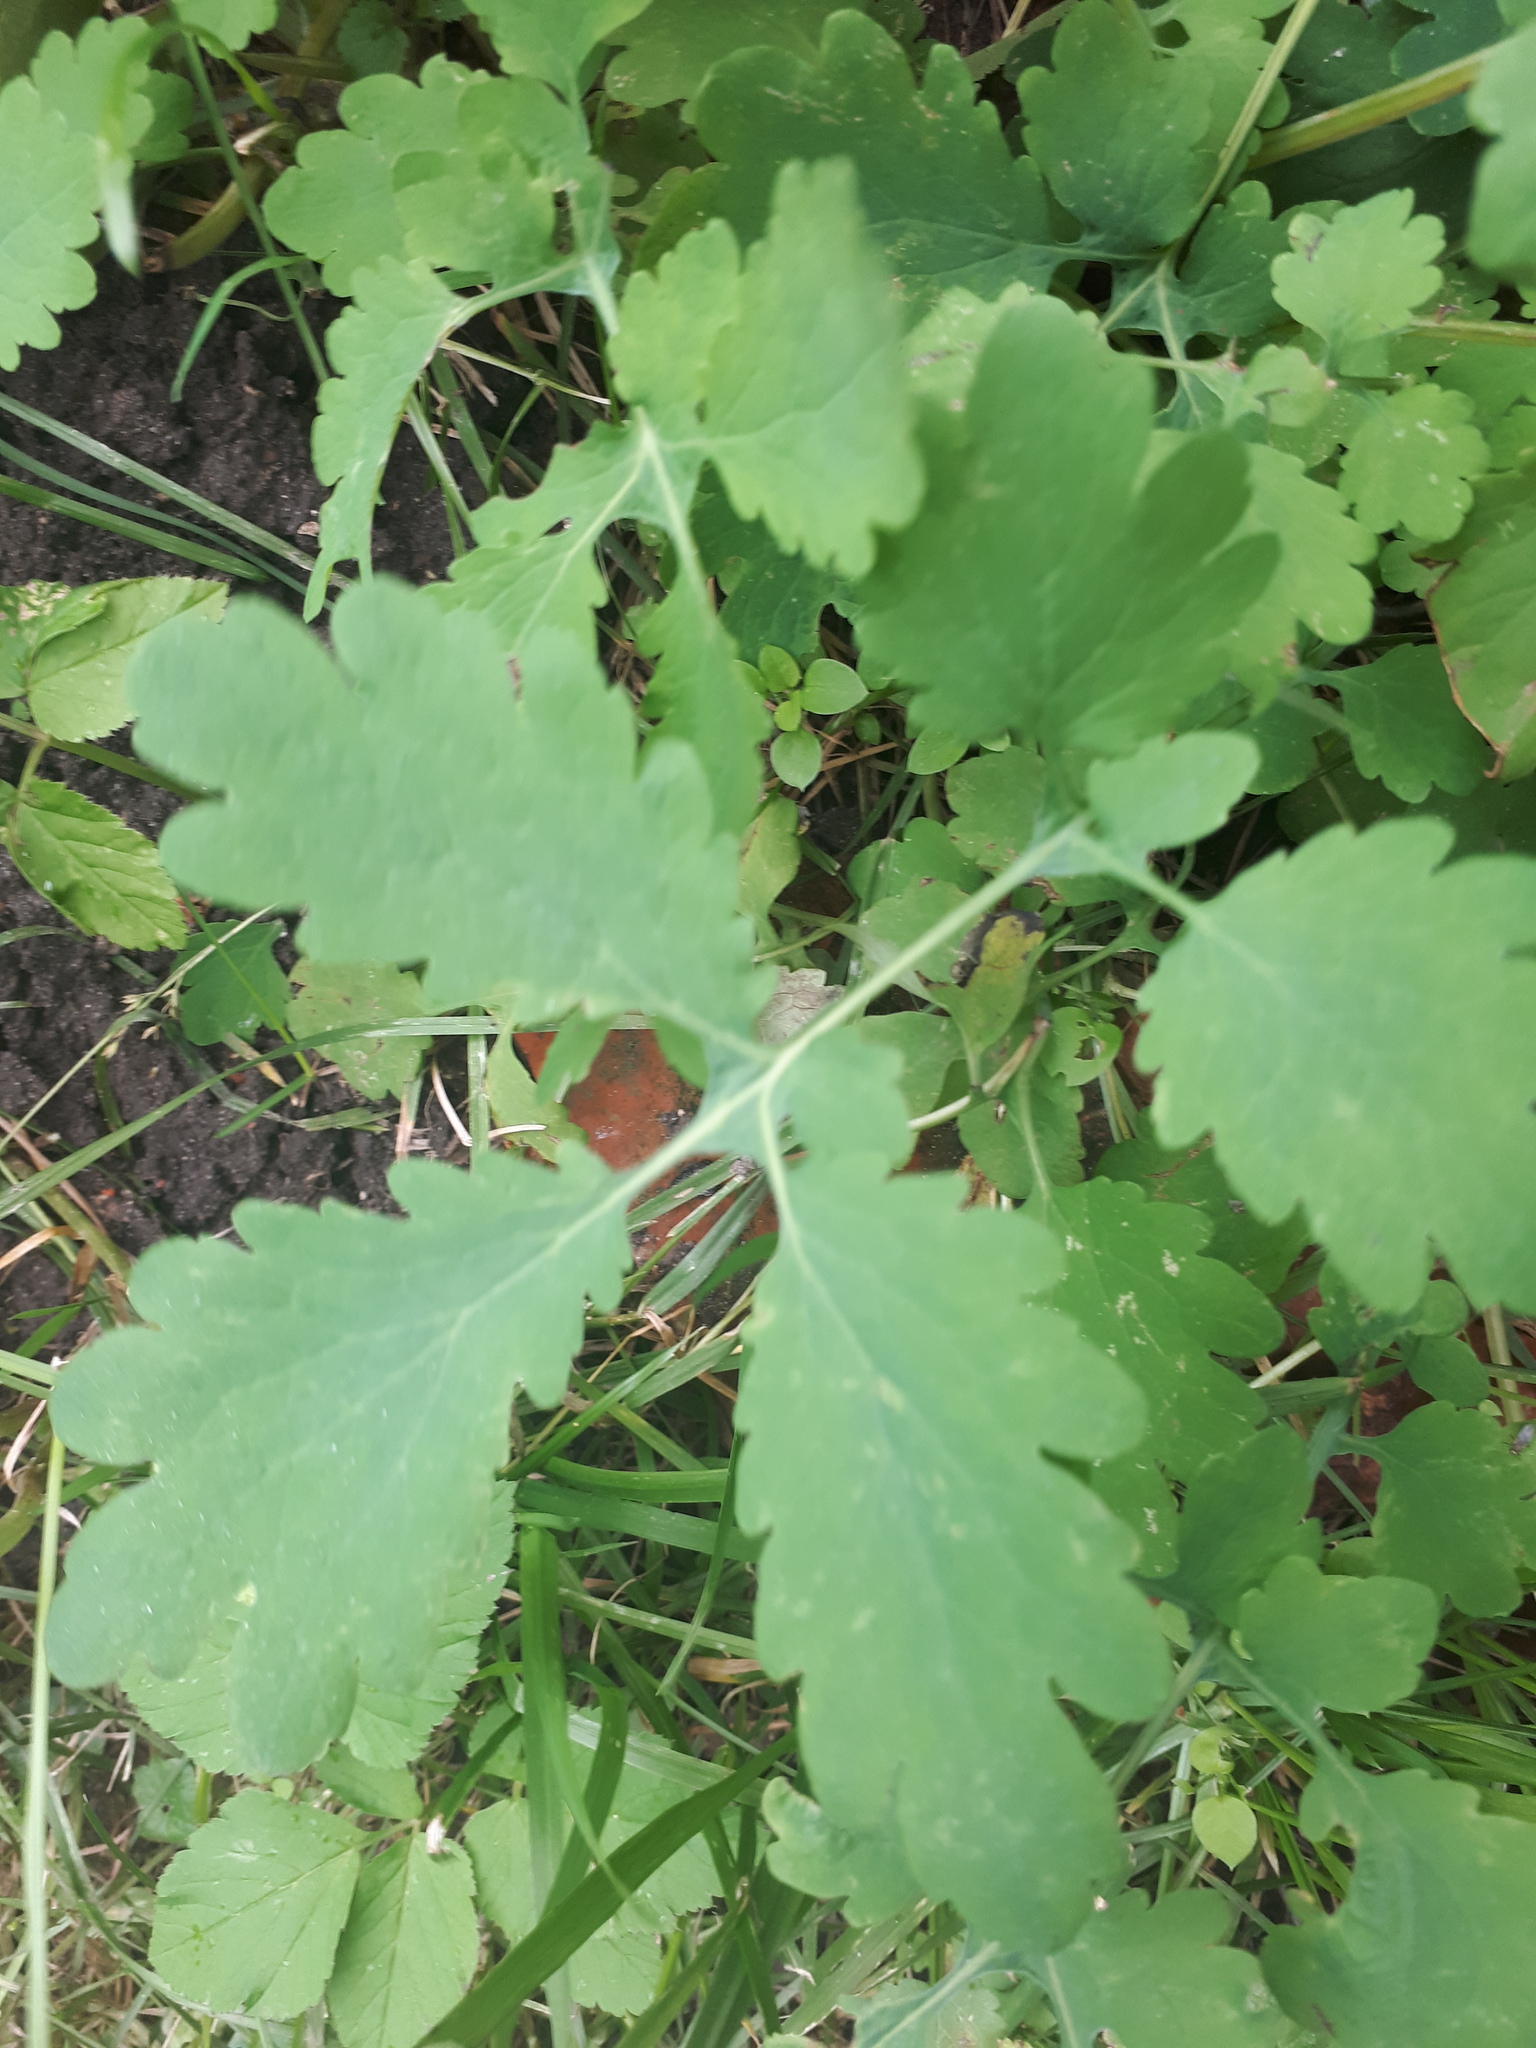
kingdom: Plantae
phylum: Tracheophyta
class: Magnoliopsida
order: Ranunculales
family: Papaveraceae
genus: Chelidonium
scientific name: Chelidonium majus
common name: Greater celandine
